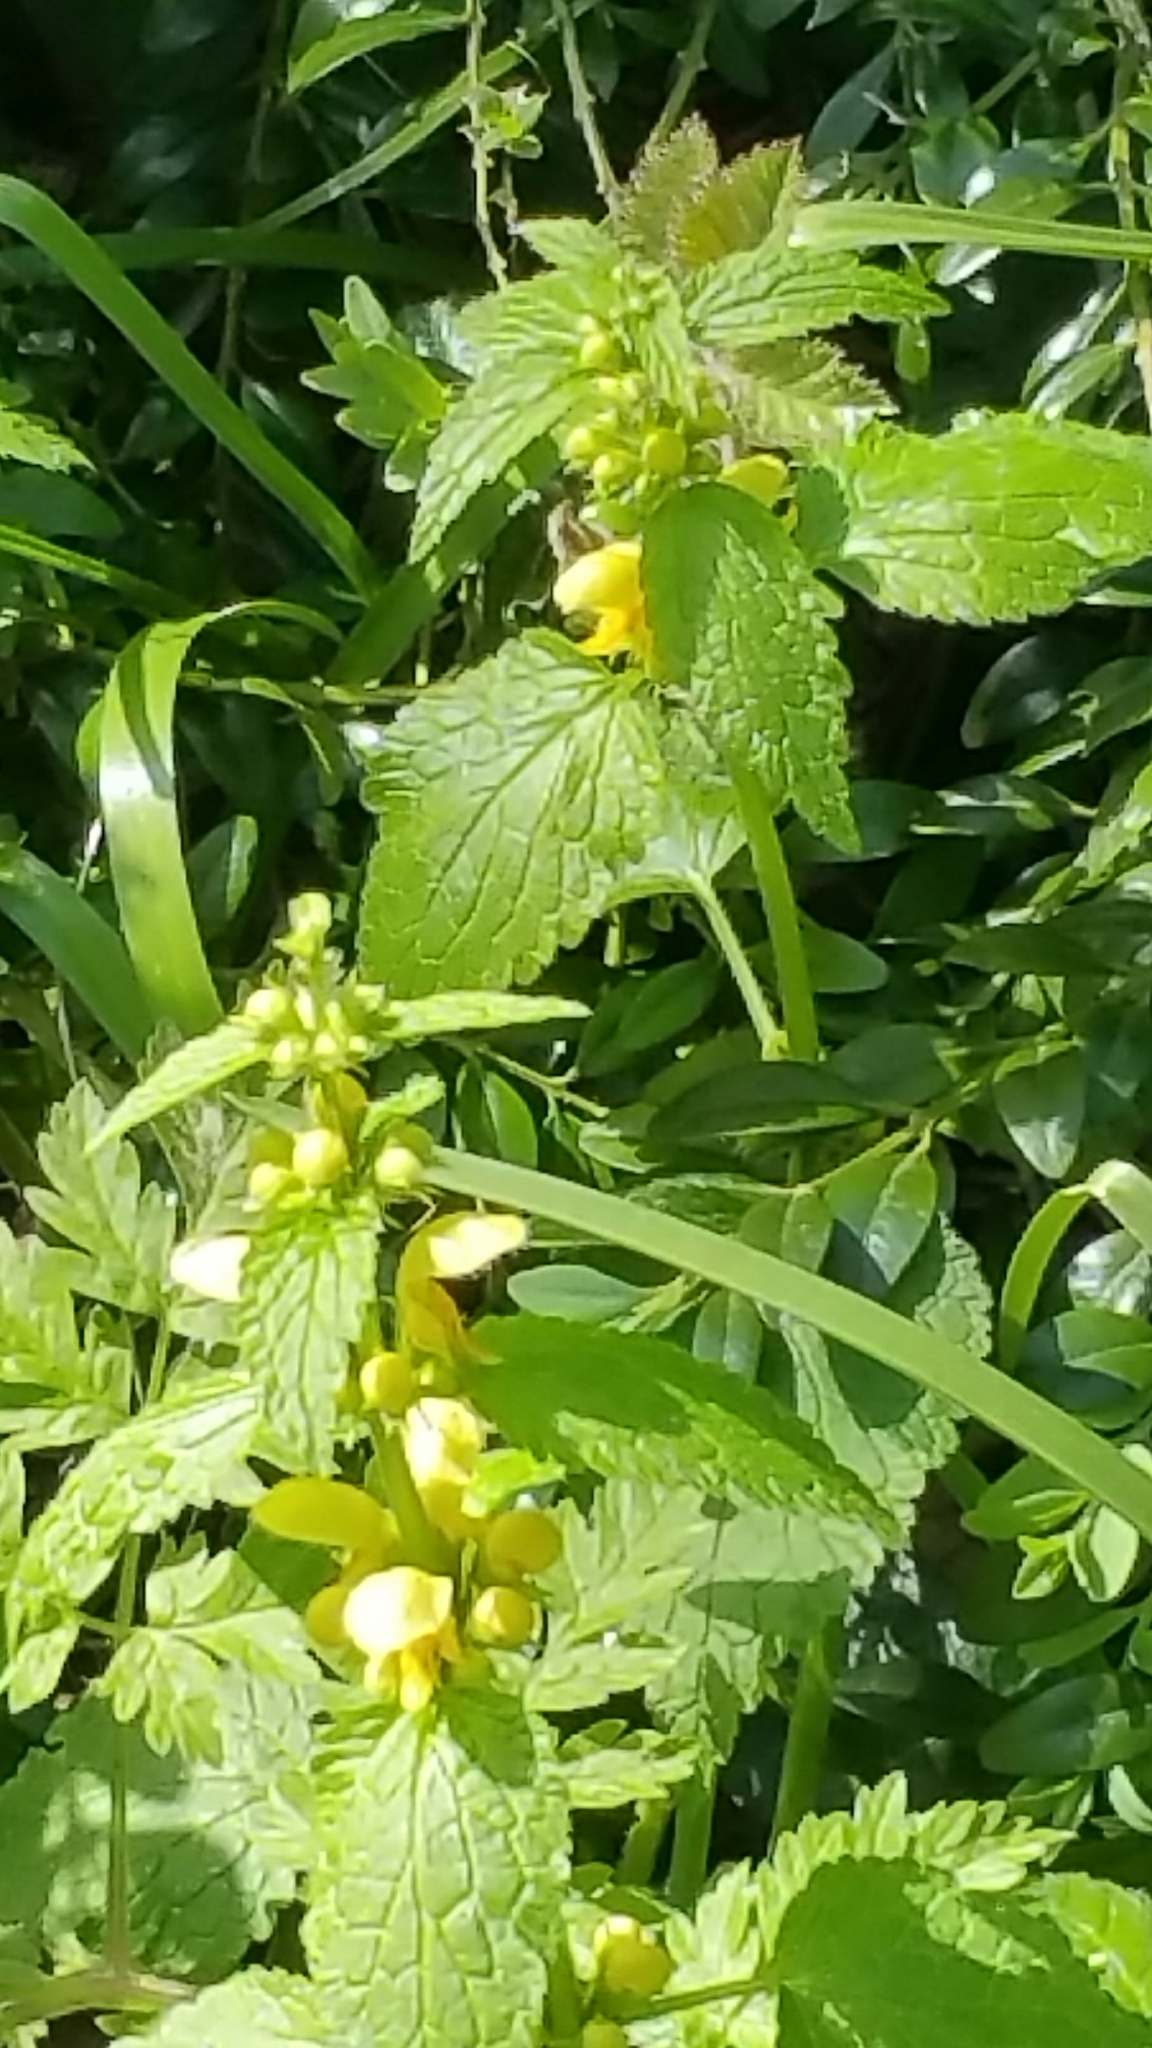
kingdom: Plantae
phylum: Tracheophyta
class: Magnoliopsida
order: Lamiales
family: Lamiaceae
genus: Lamium
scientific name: Lamium galeobdolon
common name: Yellow archangel
